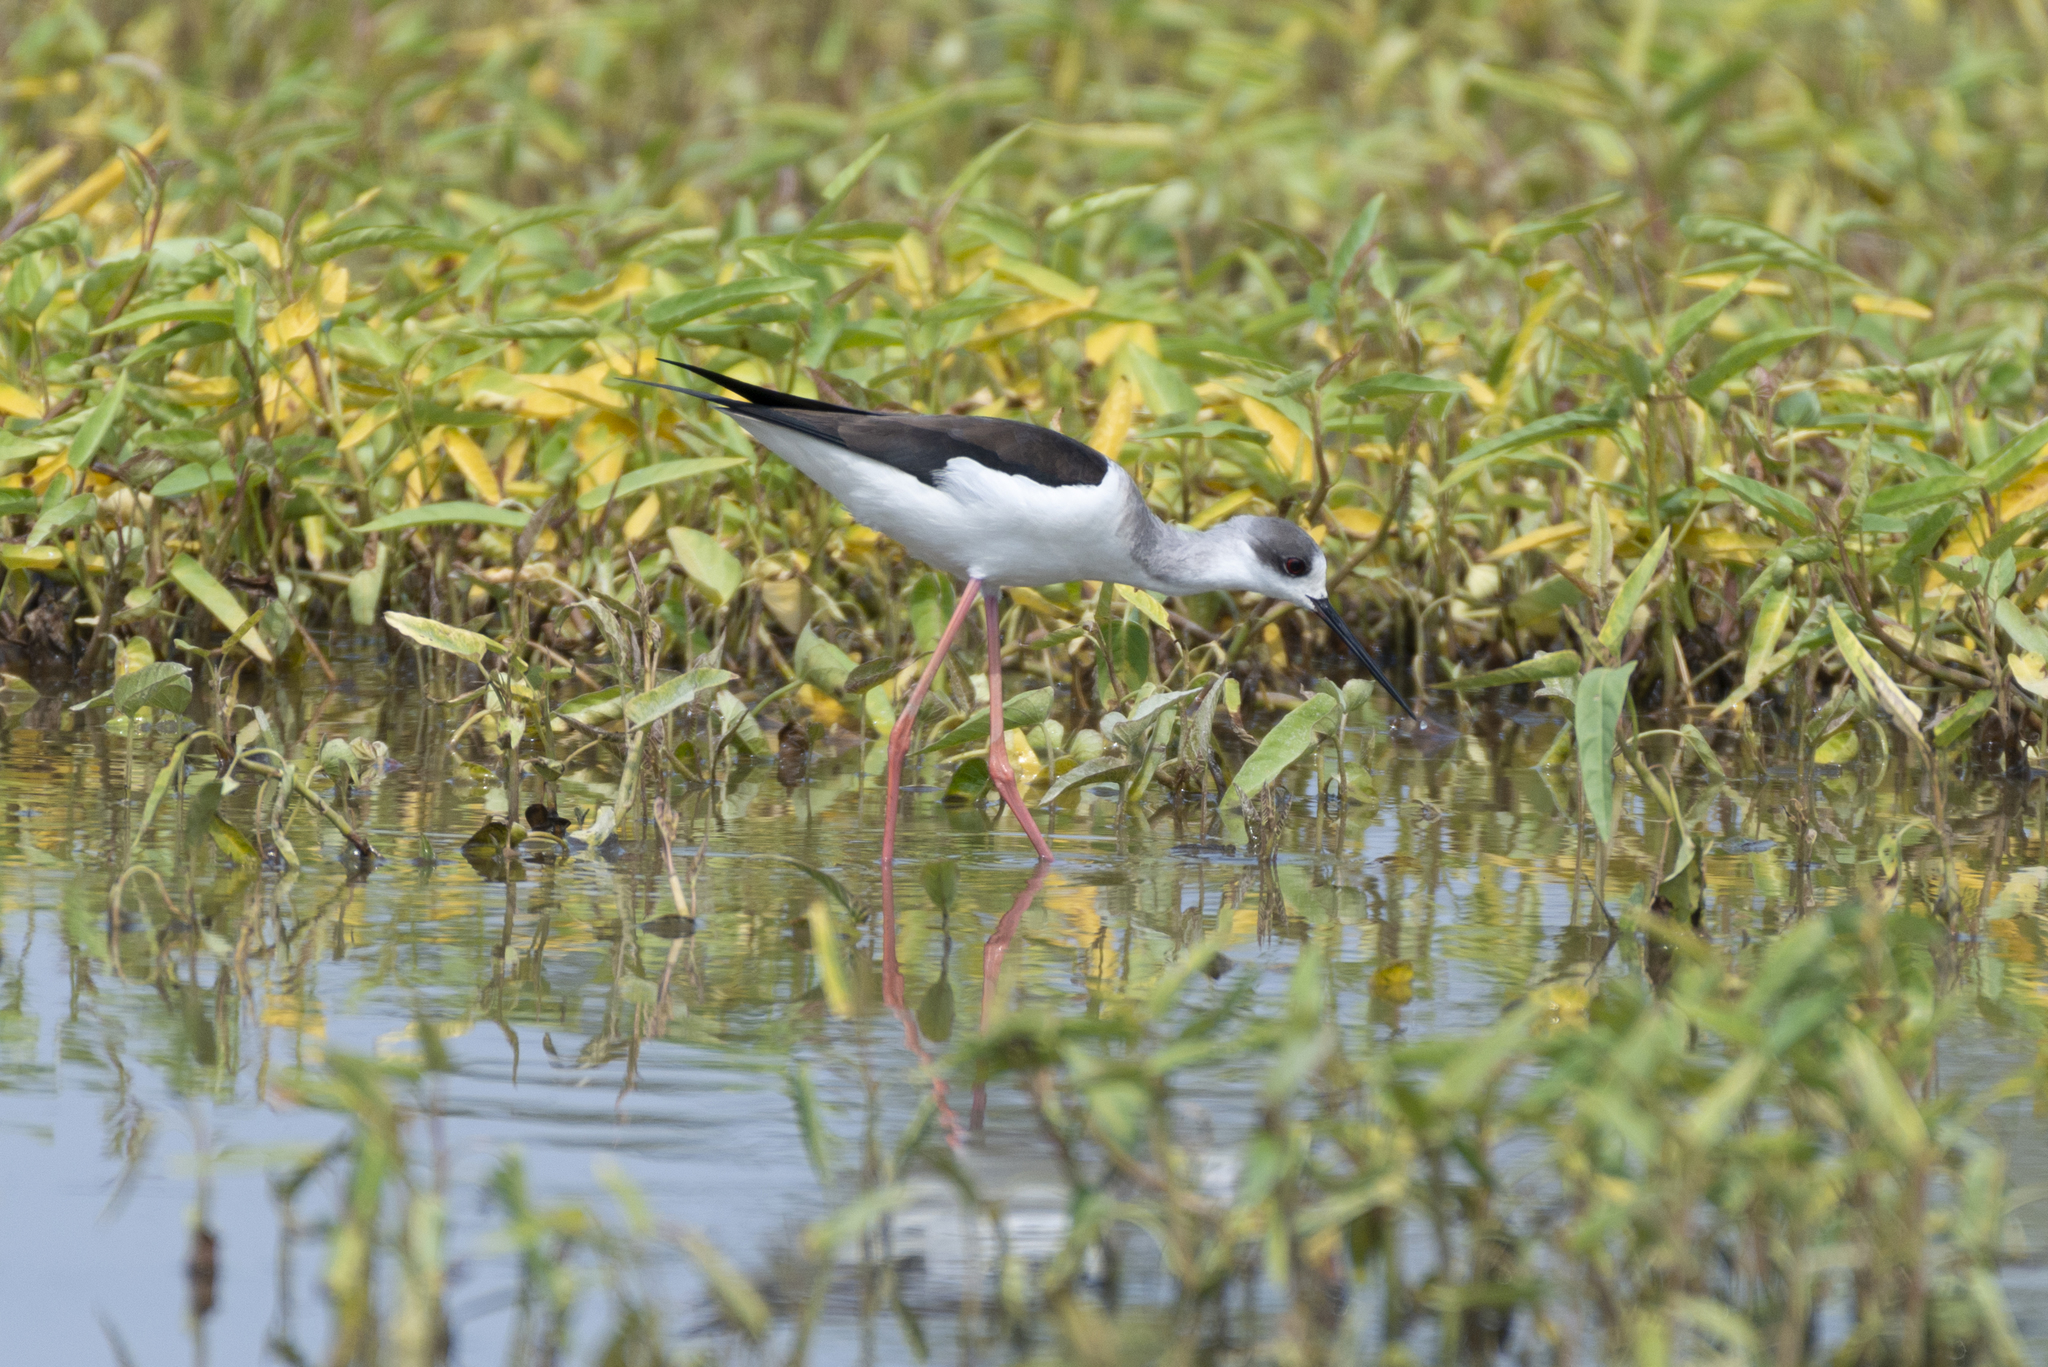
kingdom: Animalia
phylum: Chordata
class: Aves
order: Charadriiformes
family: Recurvirostridae
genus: Himantopus
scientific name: Himantopus himantopus
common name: Black-winged stilt
